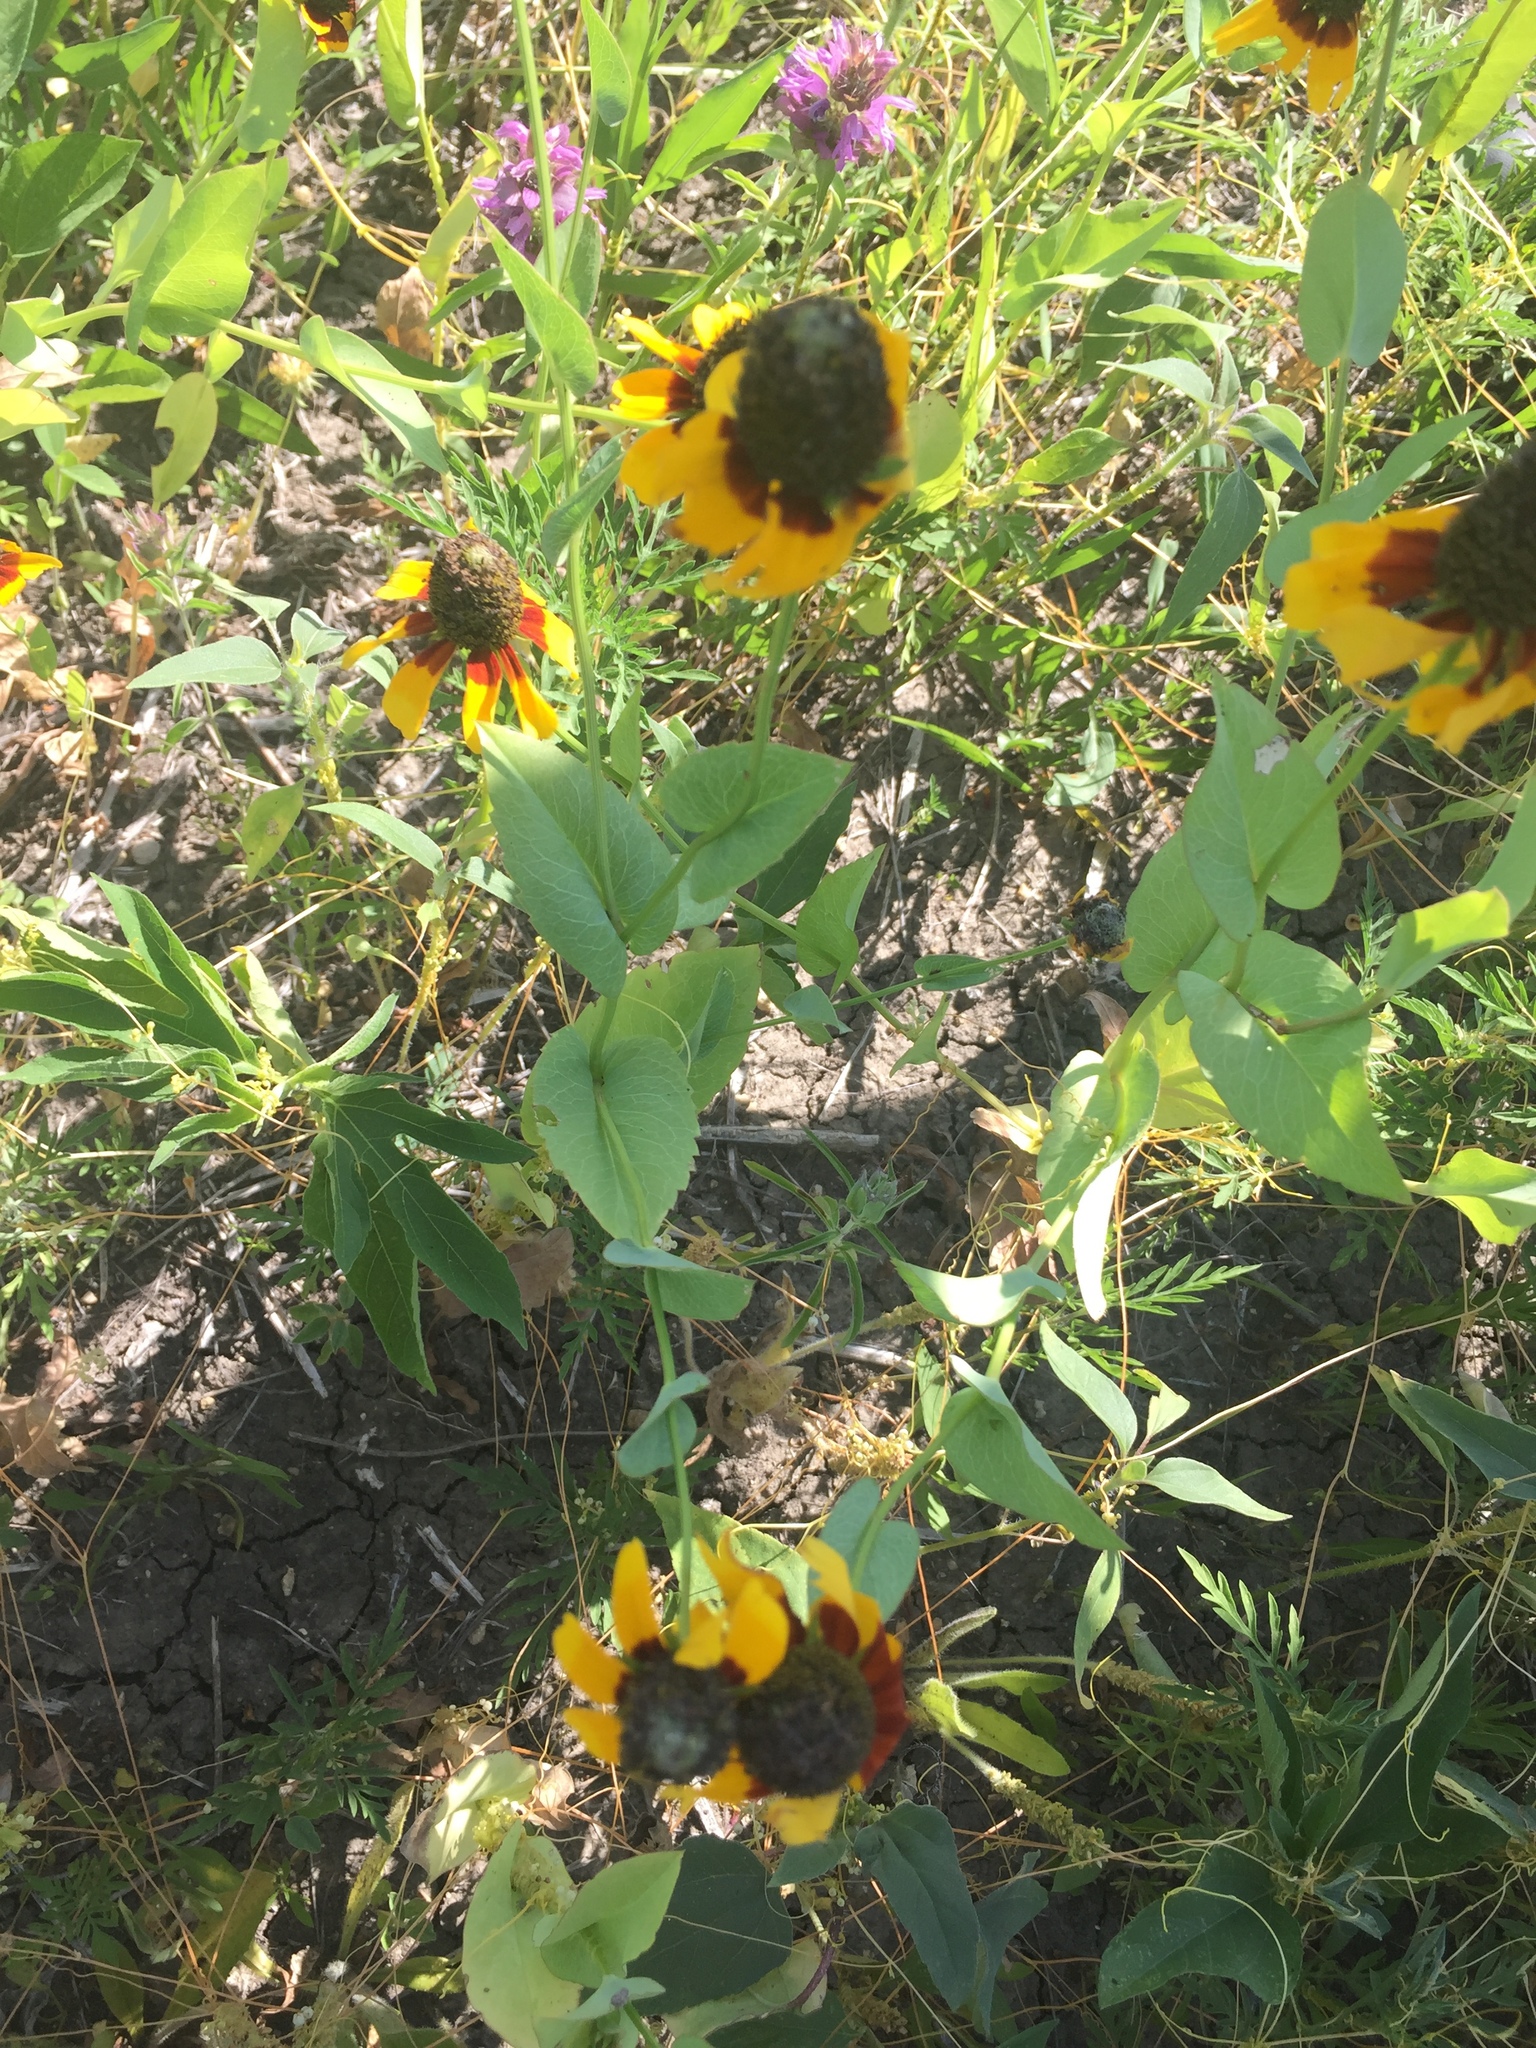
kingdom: Plantae
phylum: Tracheophyta
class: Magnoliopsida
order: Asterales
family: Asteraceae
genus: Rudbeckia
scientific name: Rudbeckia amplexicaulis
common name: Clasping-leaf coneflower
